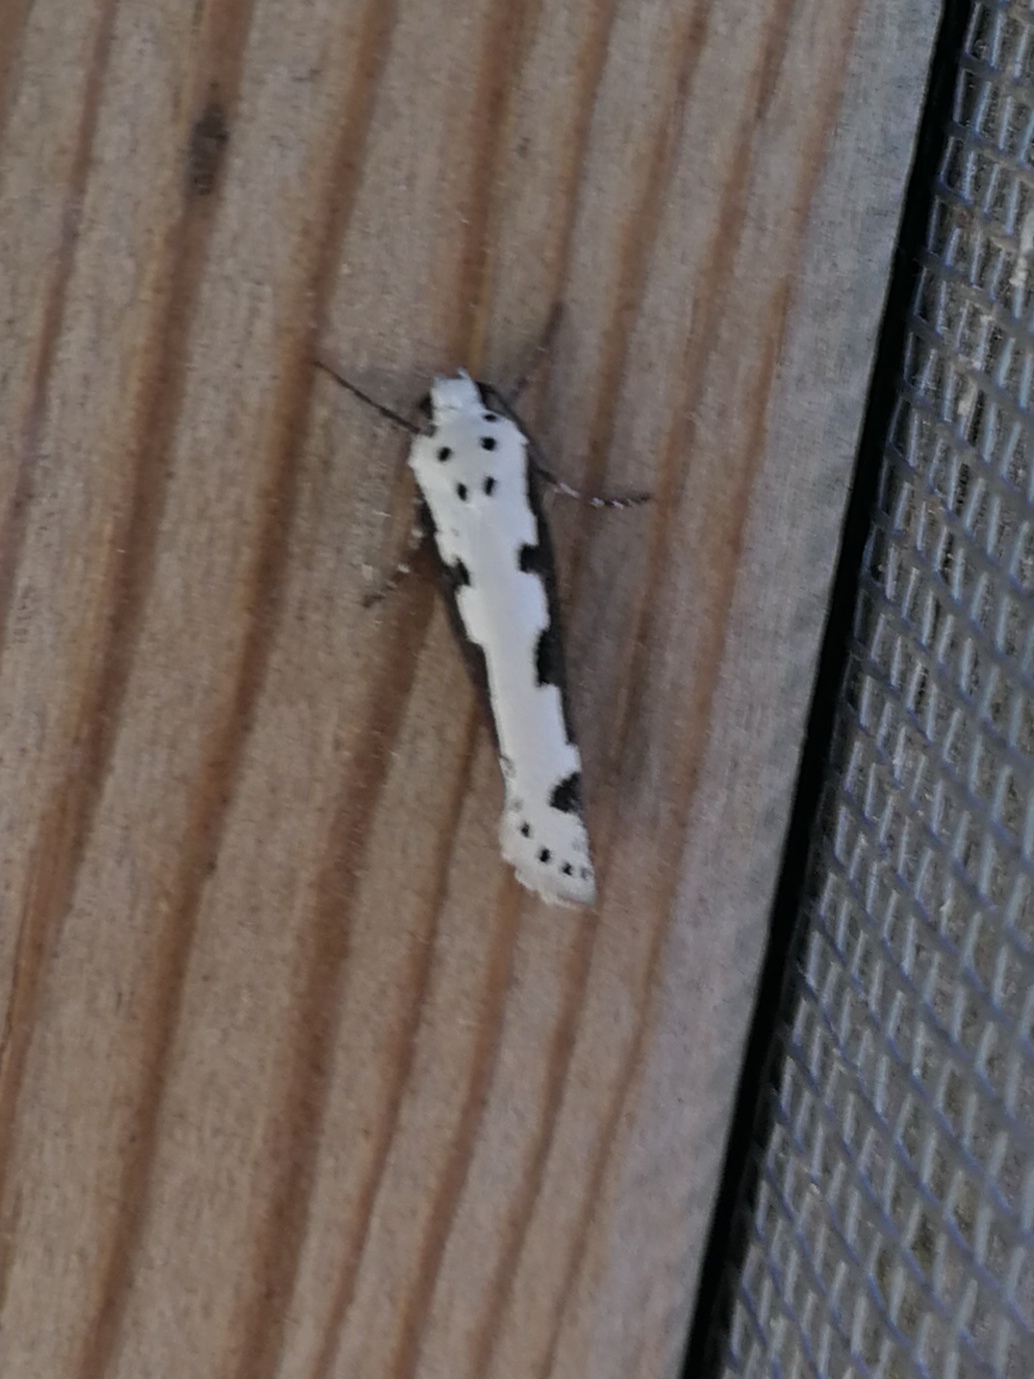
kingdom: Animalia
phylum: Arthropoda
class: Insecta
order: Lepidoptera
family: Ethmiidae
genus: Ethmia
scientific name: Ethmia bipunctella
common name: Bordered ermel
